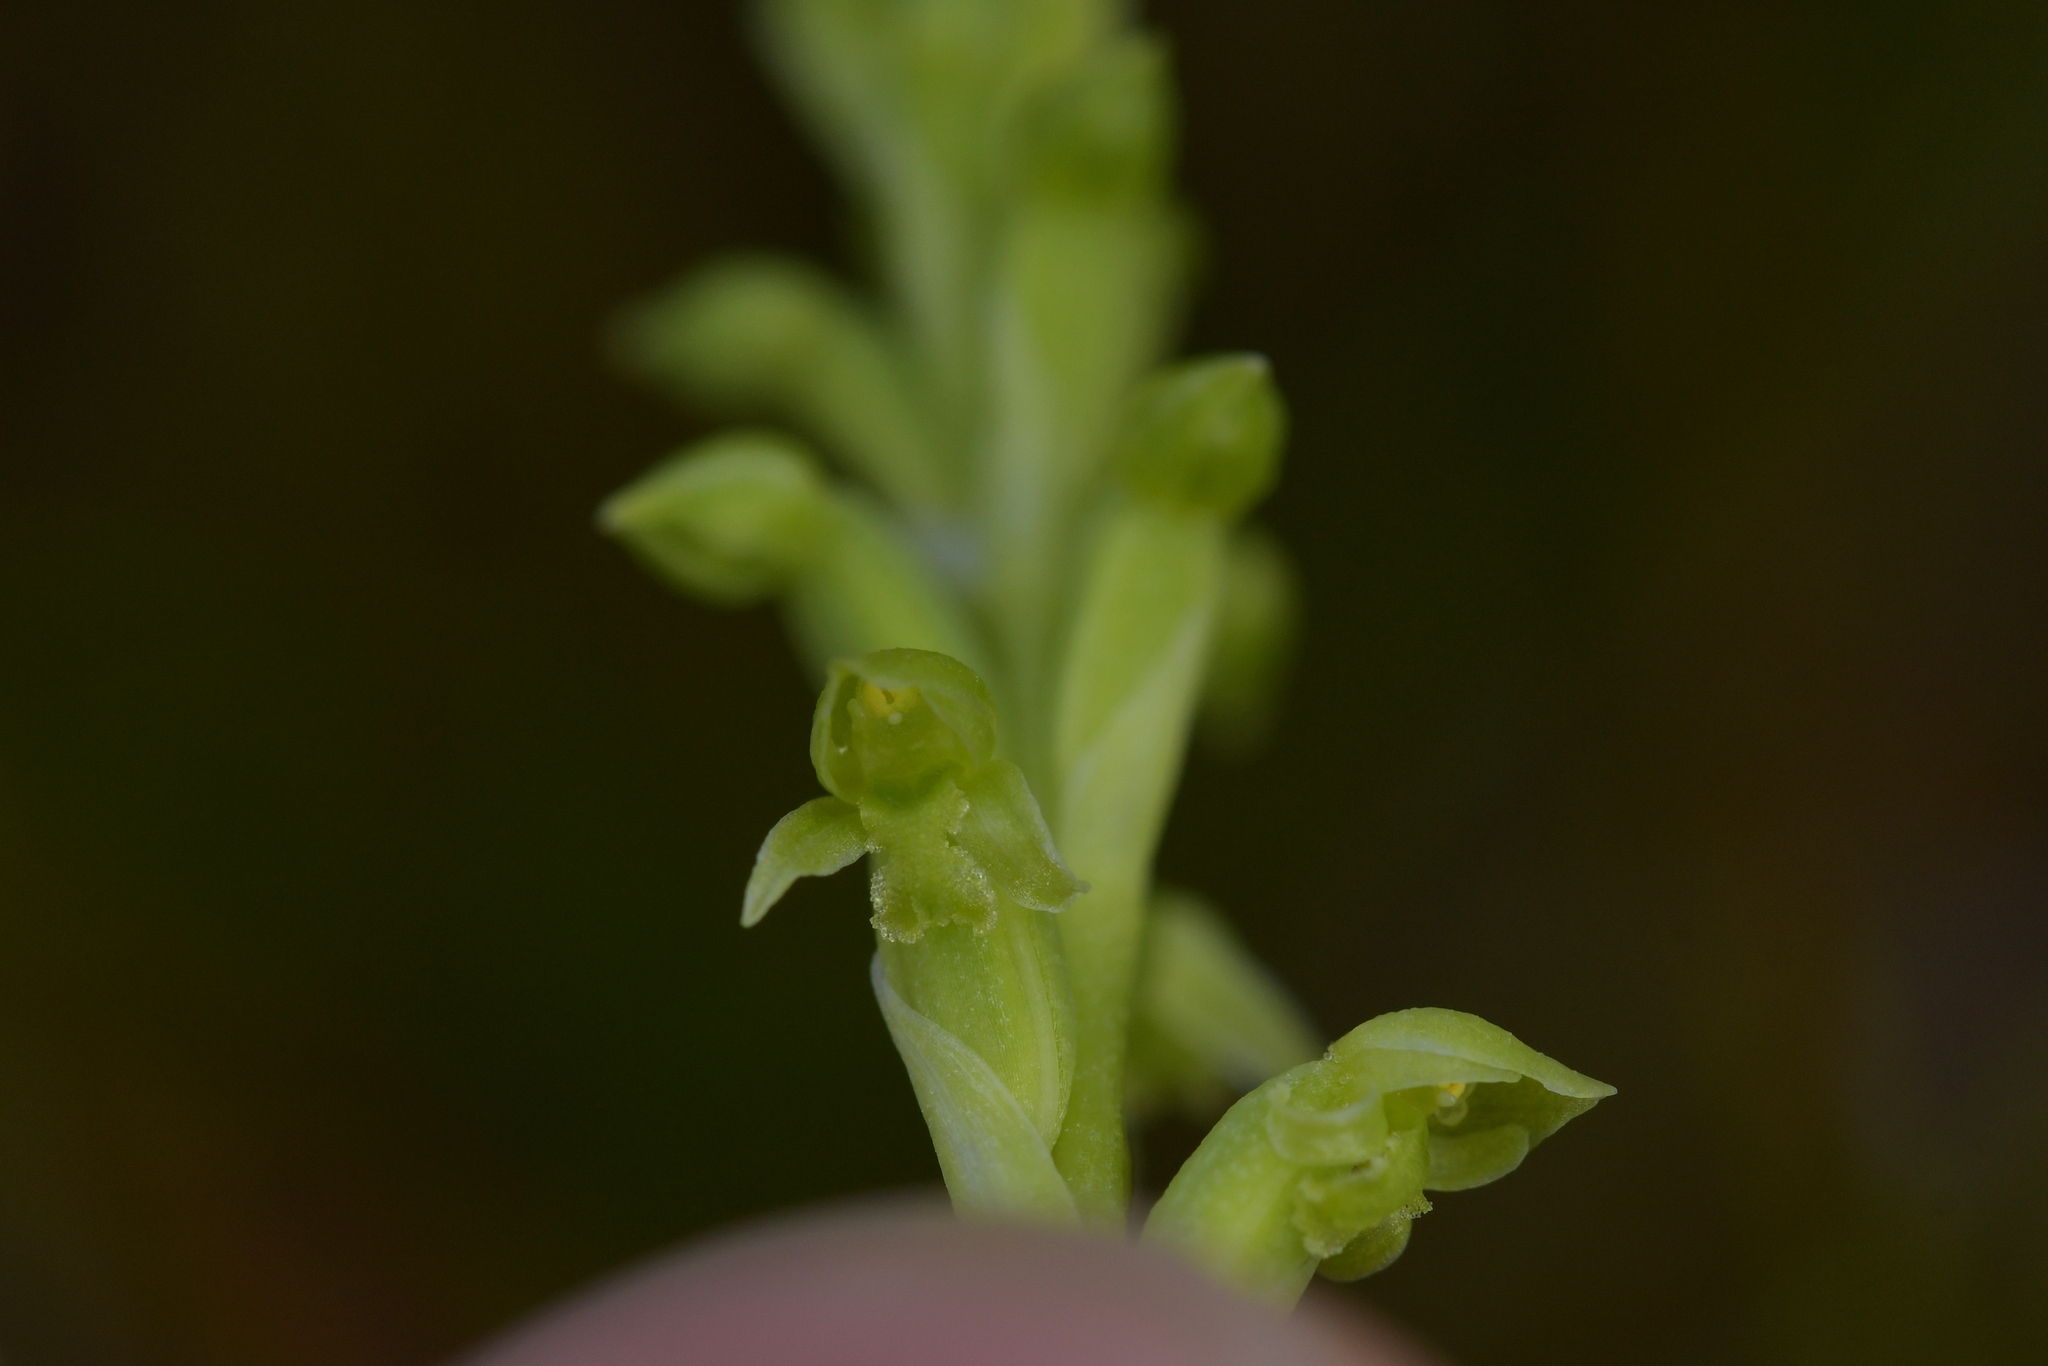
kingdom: Plantae
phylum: Tracheophyta
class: Liliopsida
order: Asparagales
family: Orchidaceae
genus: Microtis
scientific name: Microtis unifolia
